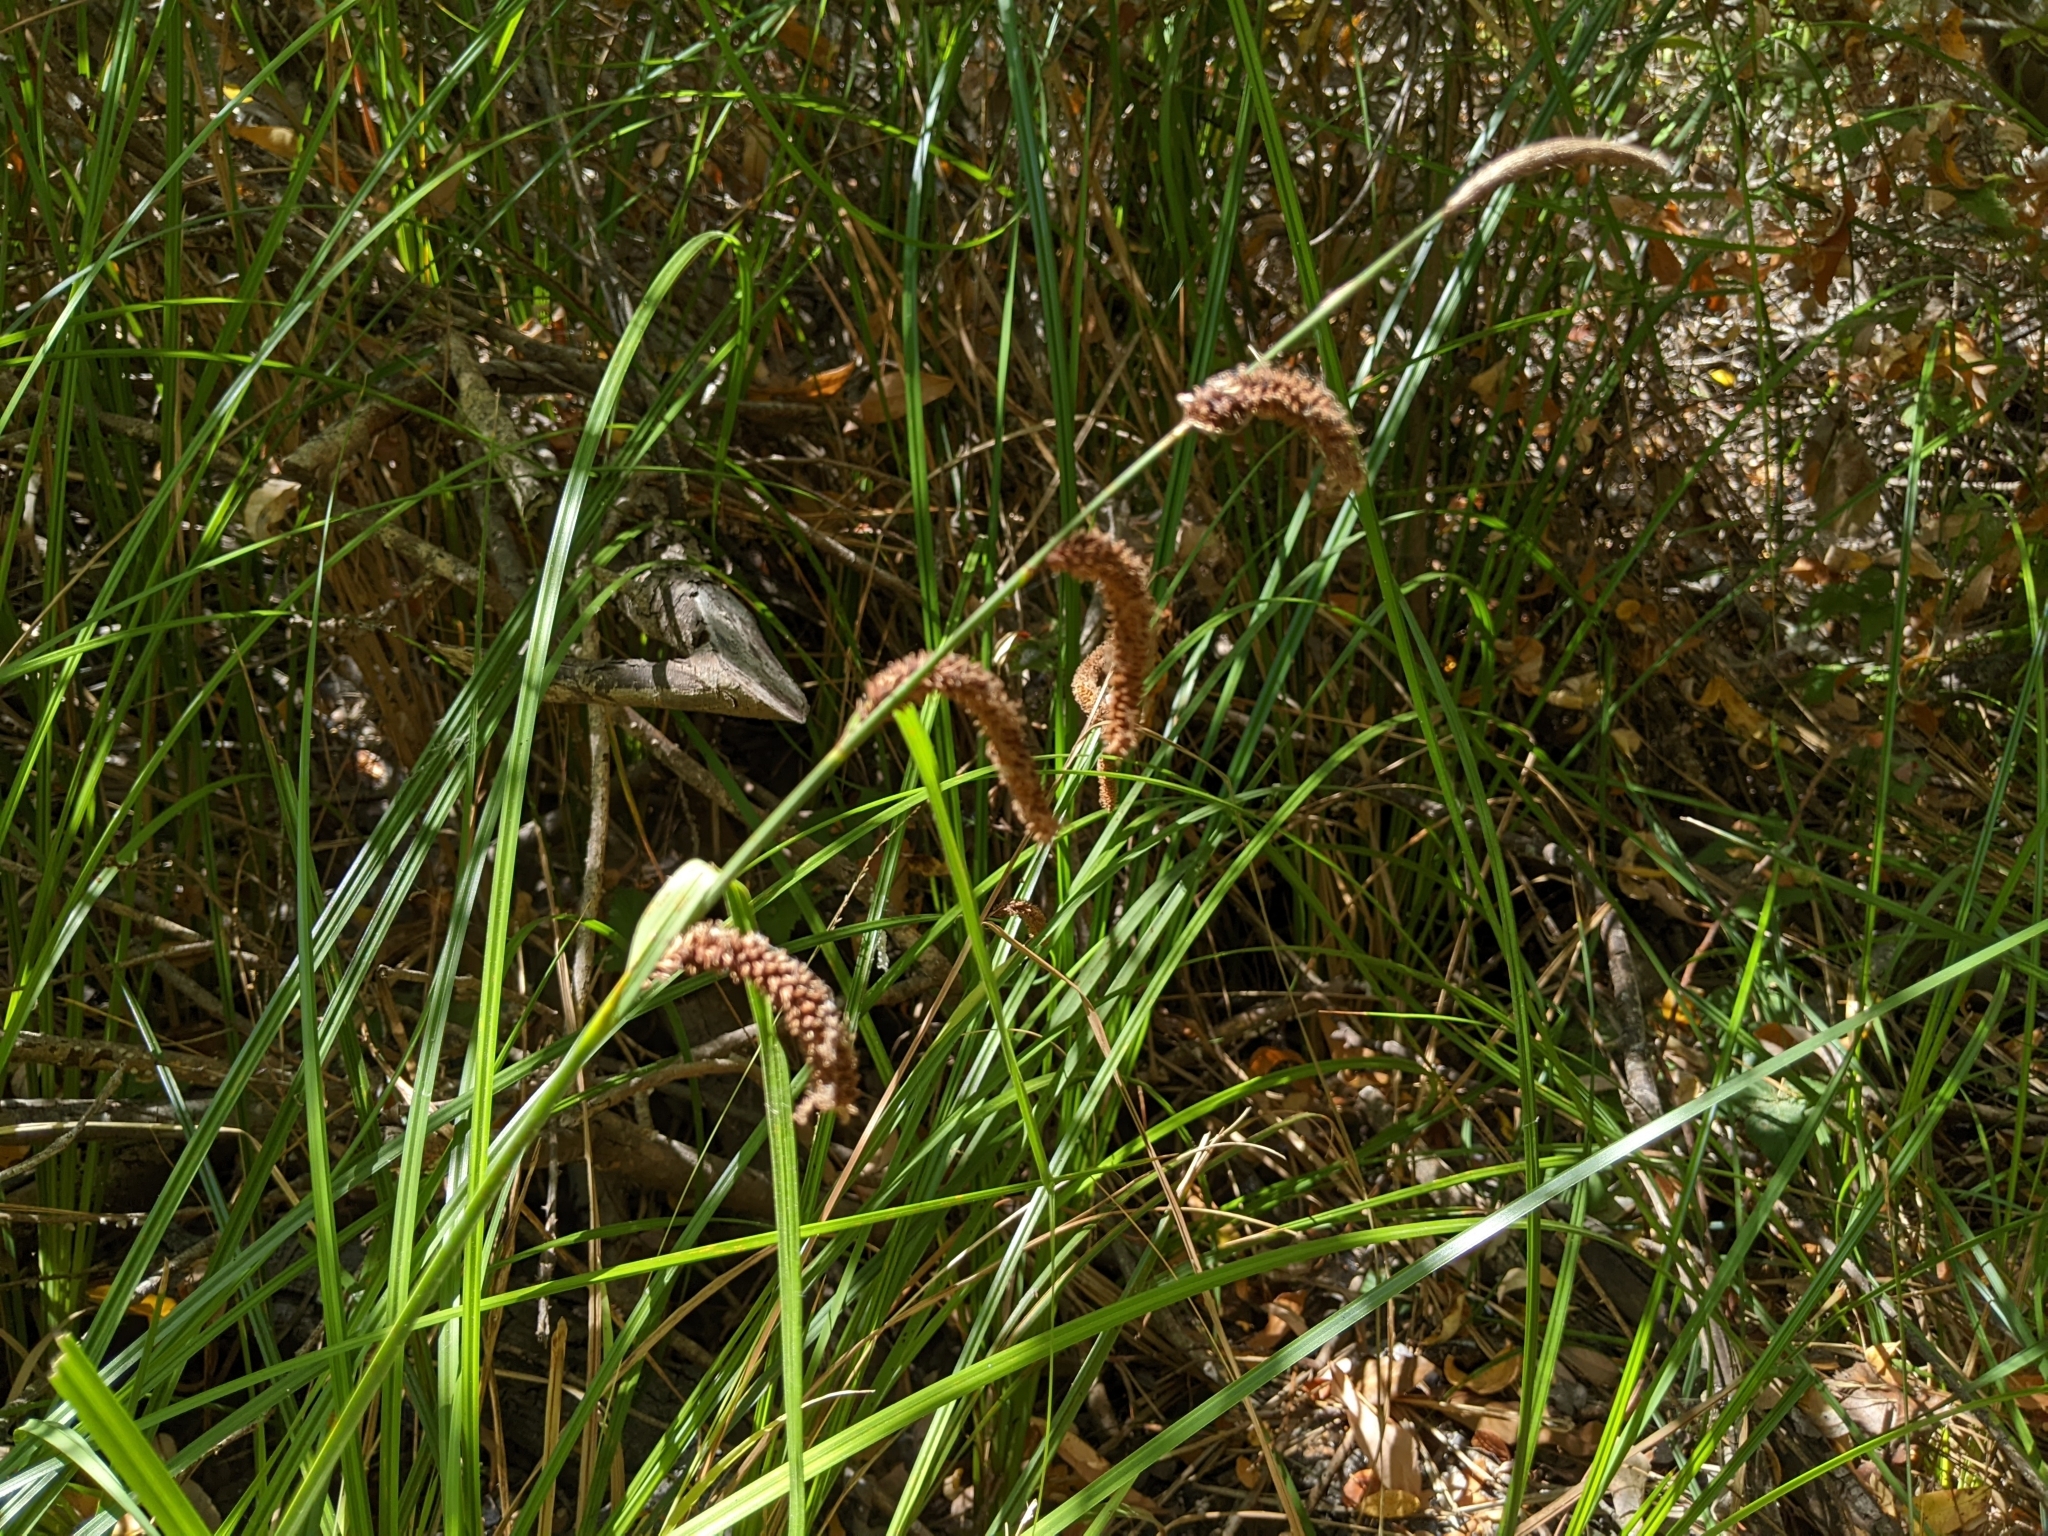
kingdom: Plantae
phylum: Tracheophyta
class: Liliopsida
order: Poales
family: Cyperaceae
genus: Carex
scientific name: Carex barbarae
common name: Santa barbara sedge
